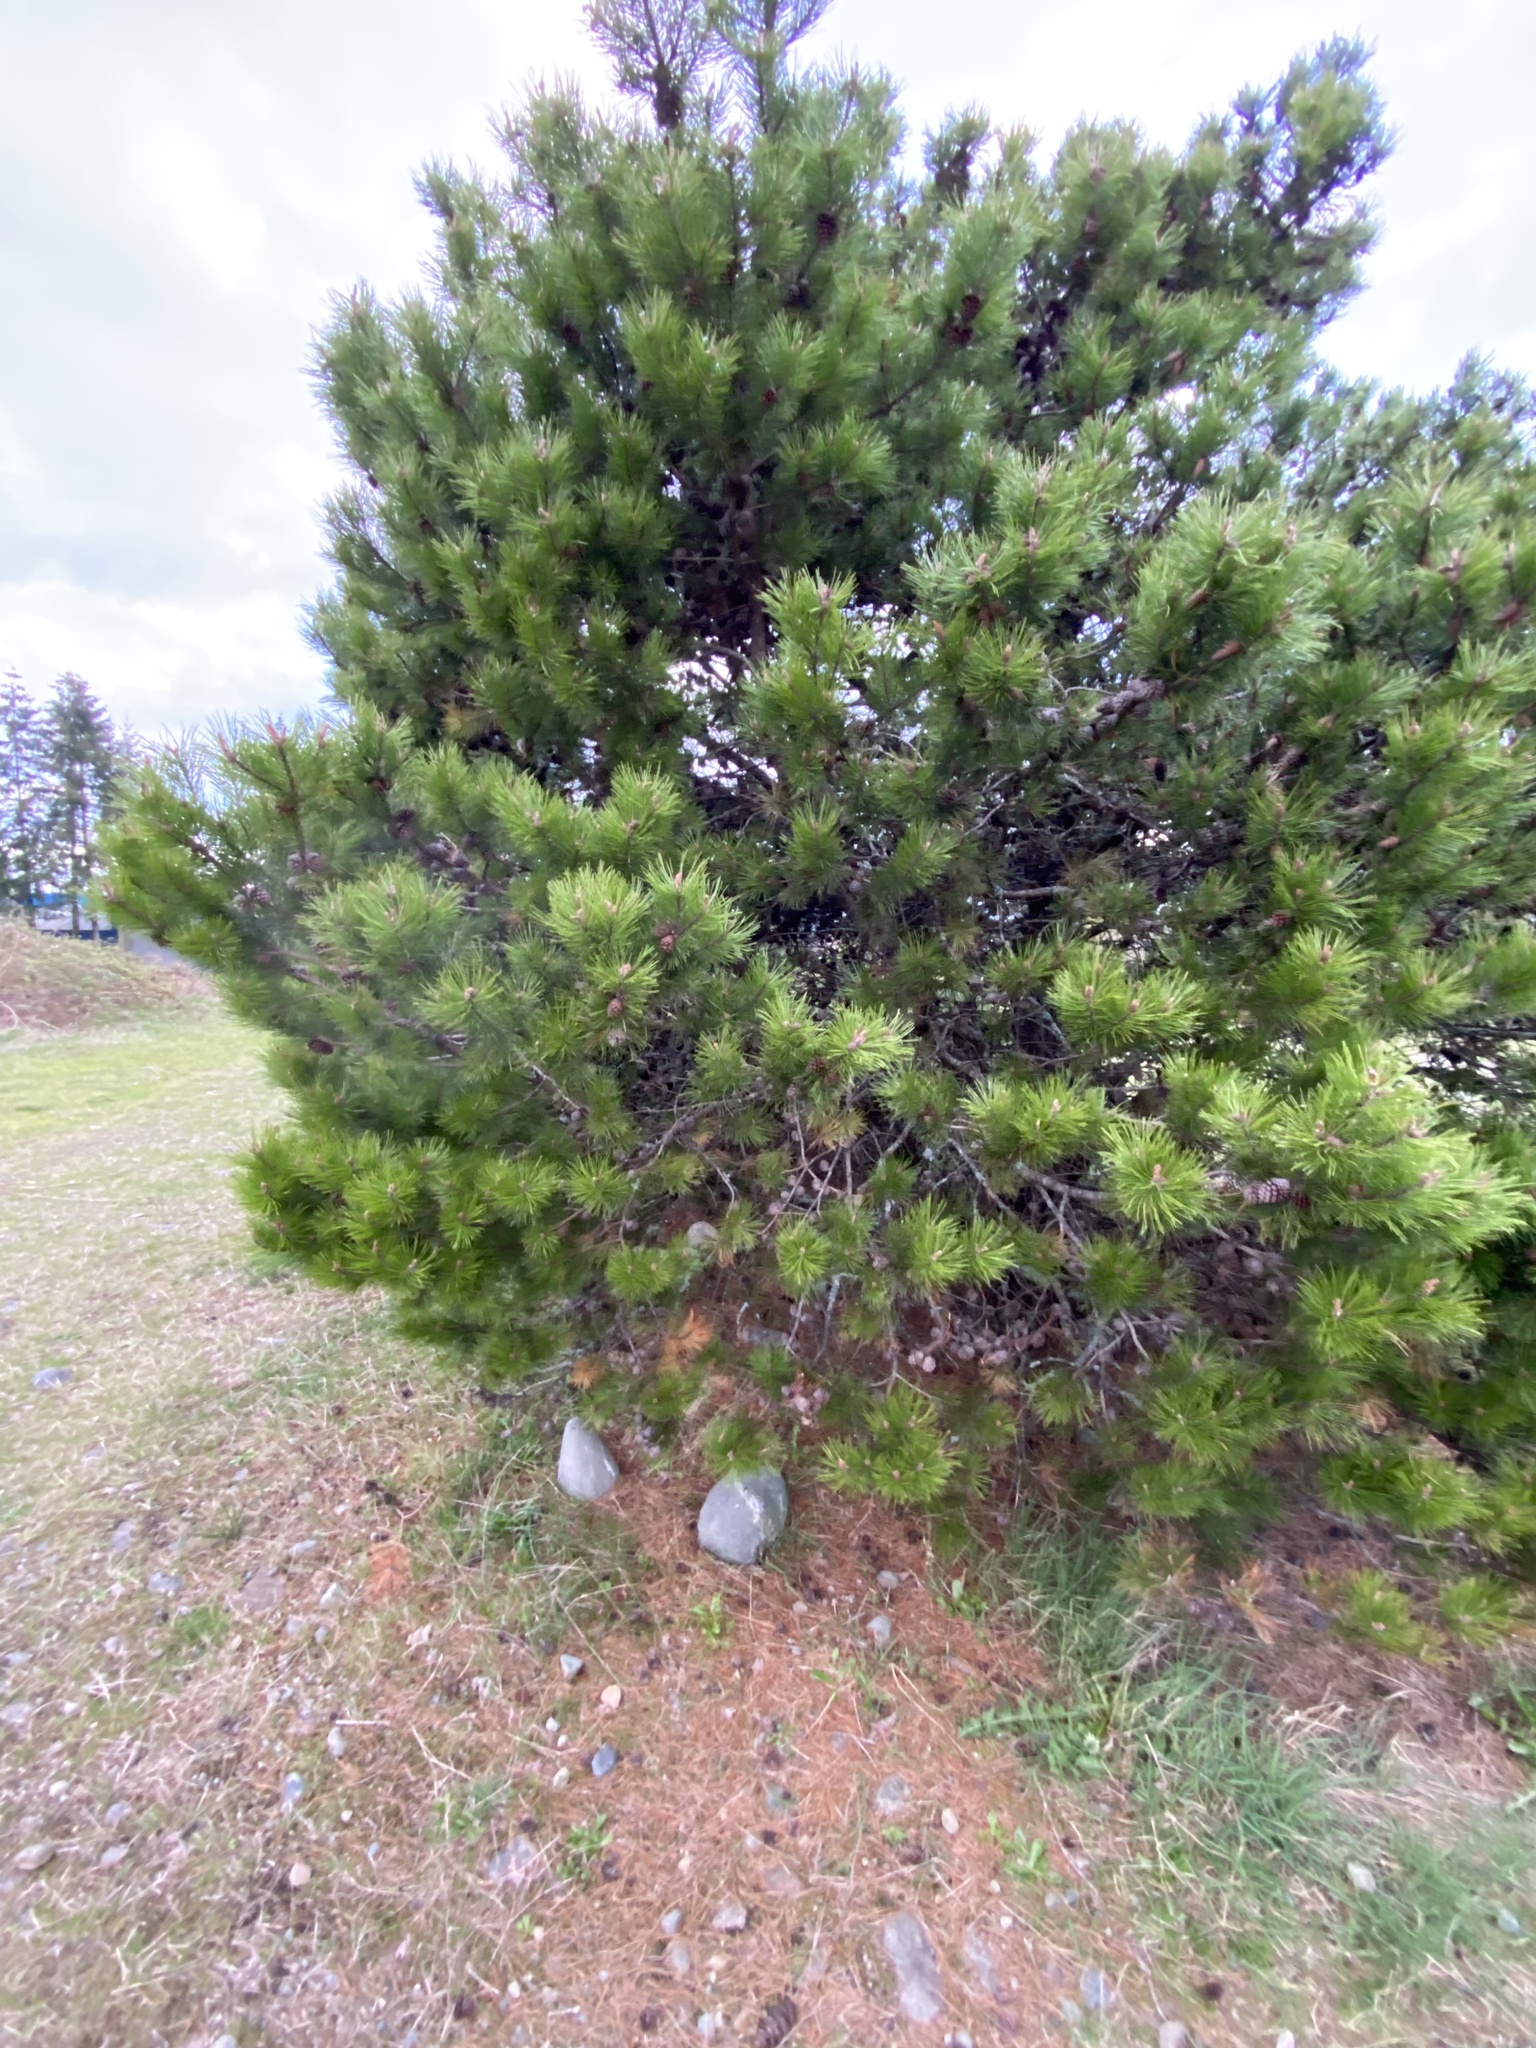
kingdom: Plantae
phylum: Tracheophyta
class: Pinopsida
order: Pinales
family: Pinaceae
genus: Pinus
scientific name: Pinus contorta
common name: Lodgepole pine
